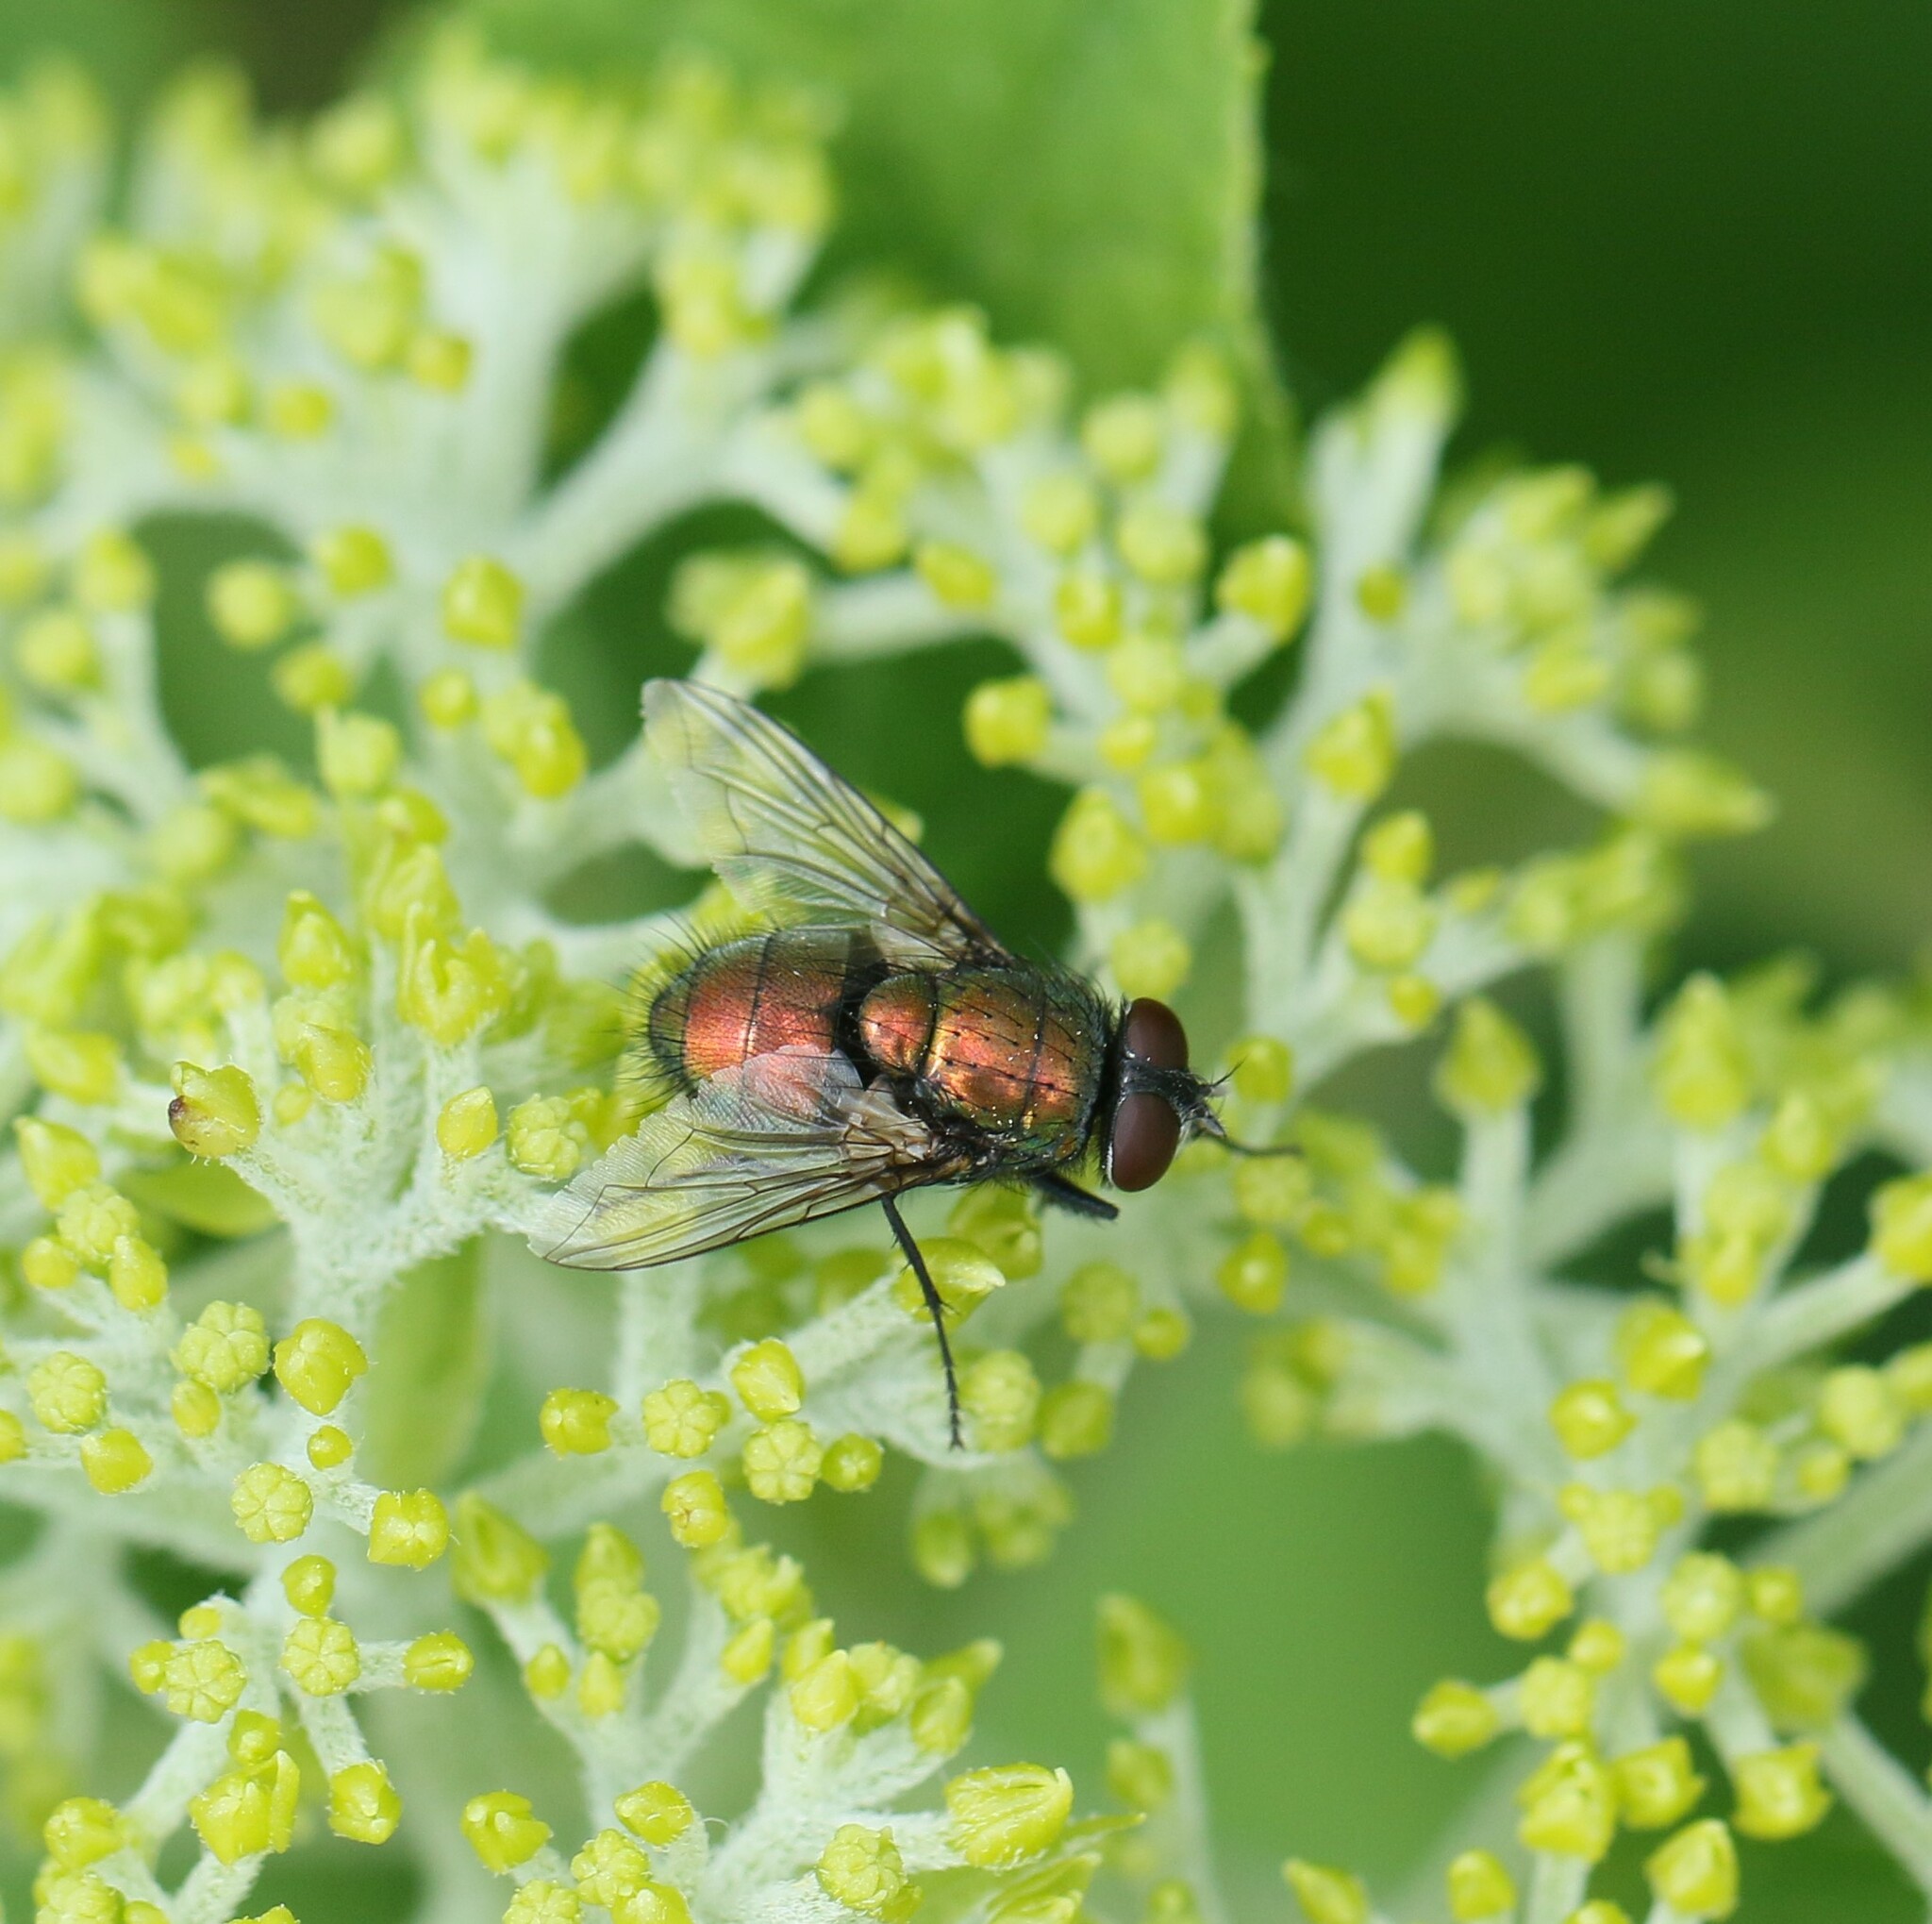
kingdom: Animalia
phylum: Arthropoda
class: Insecta
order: Diptera
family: Calliphoridae
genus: Lucilia
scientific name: Lucilia sericata
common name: Blow fly
